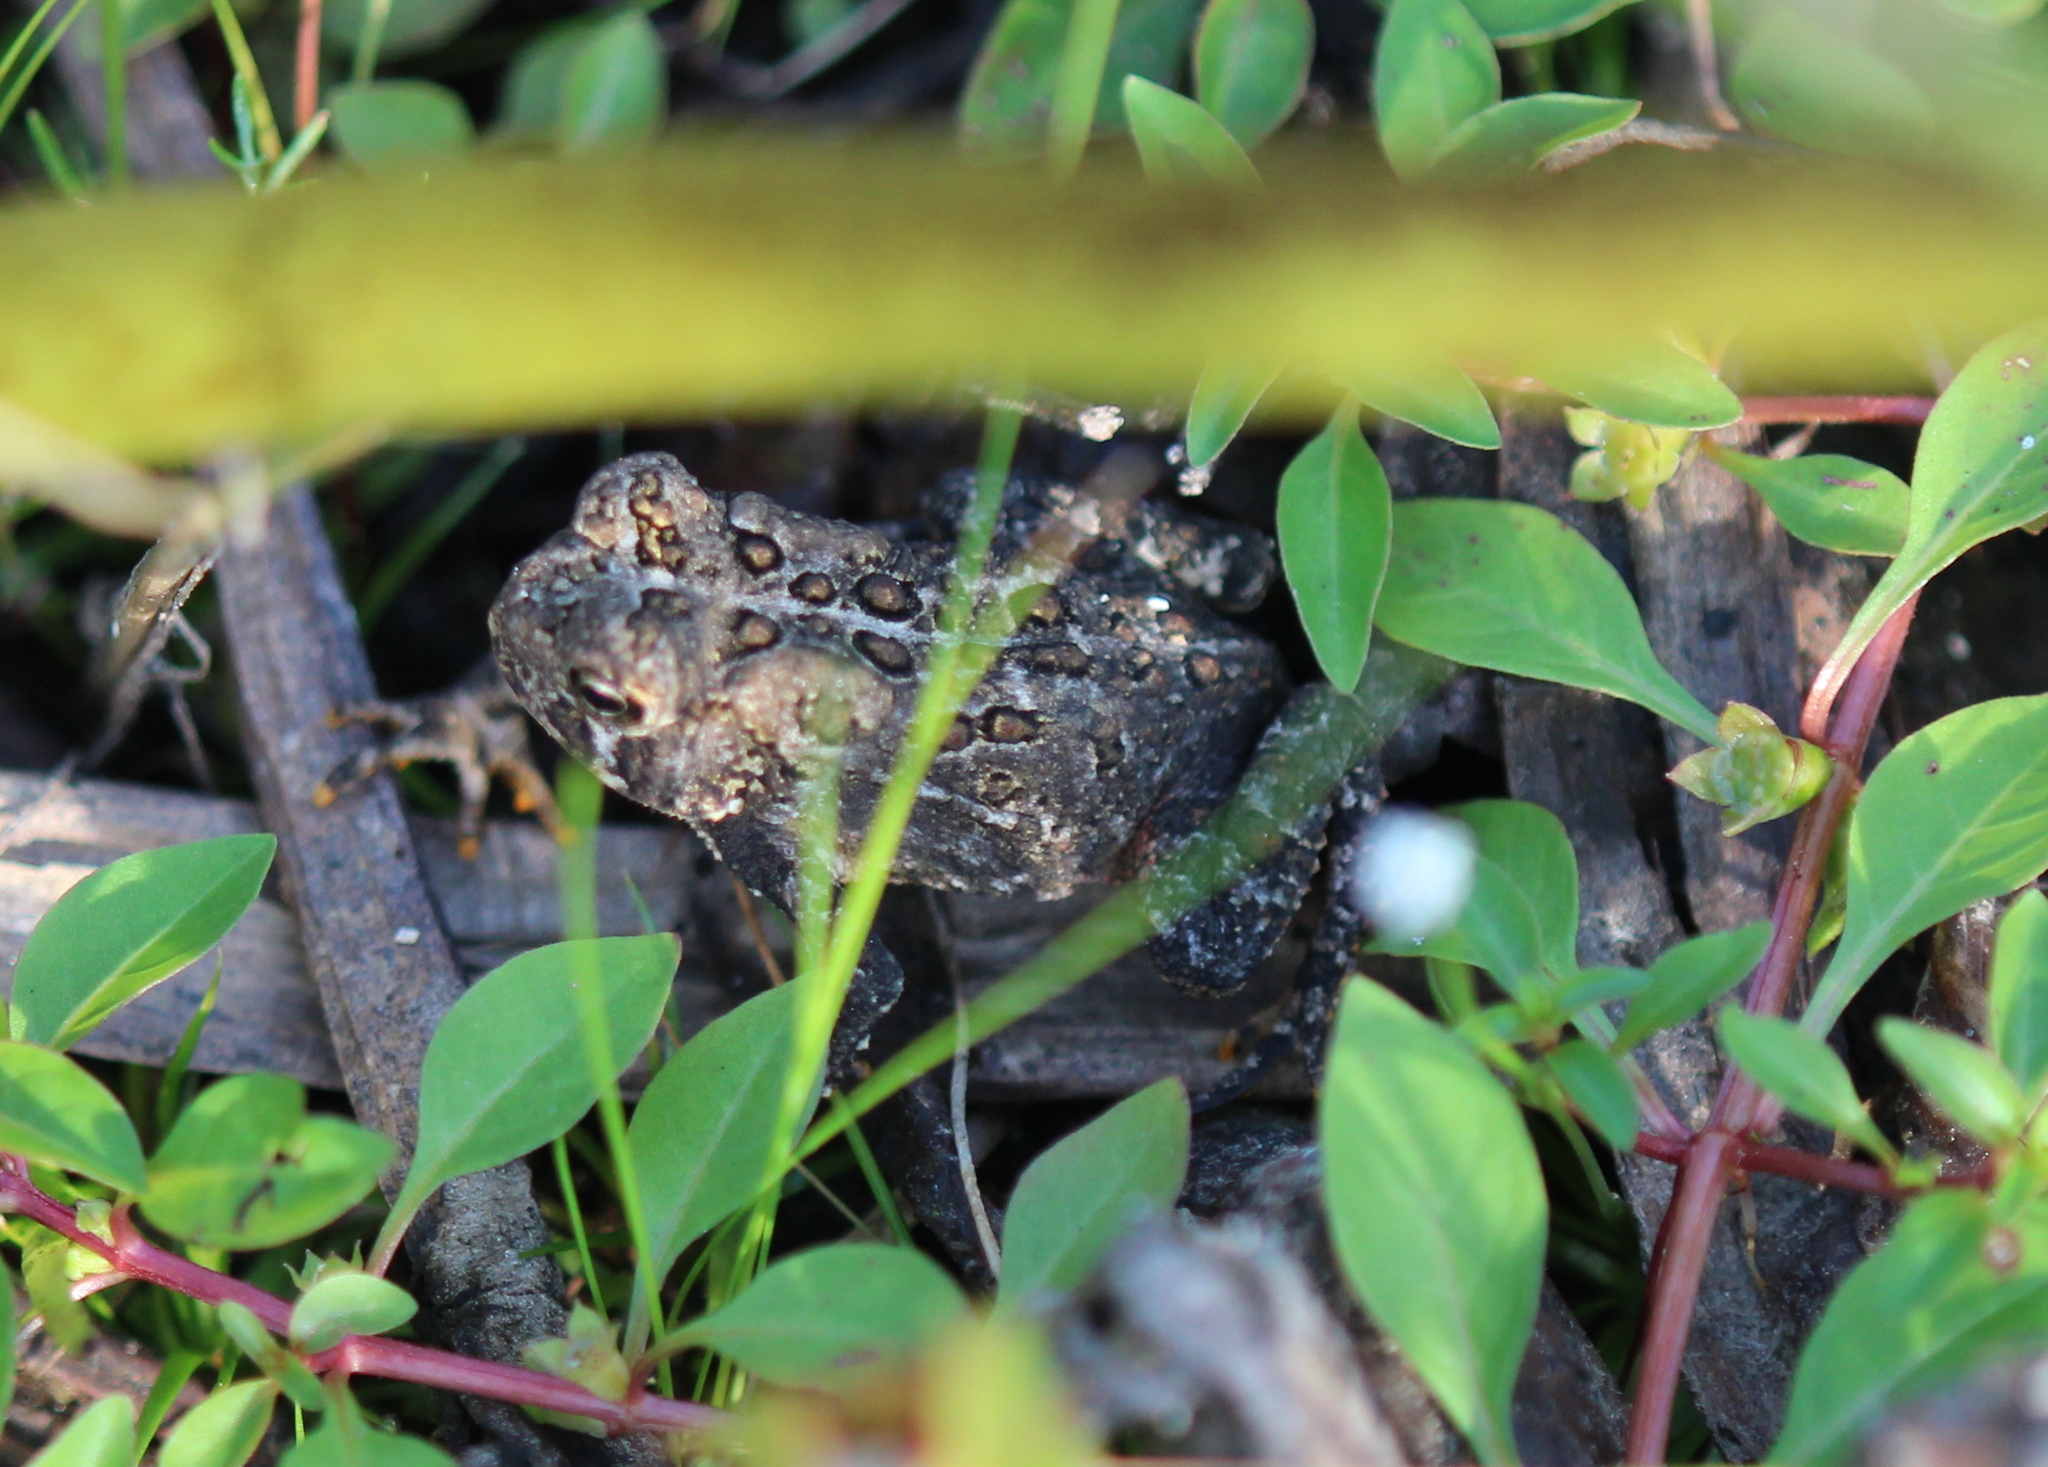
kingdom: Animalia
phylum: Chordata
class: Amphibia
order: Anura
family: Bufonidae
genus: Anaxyrus
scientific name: Anaxyrus americanus
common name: American toad
